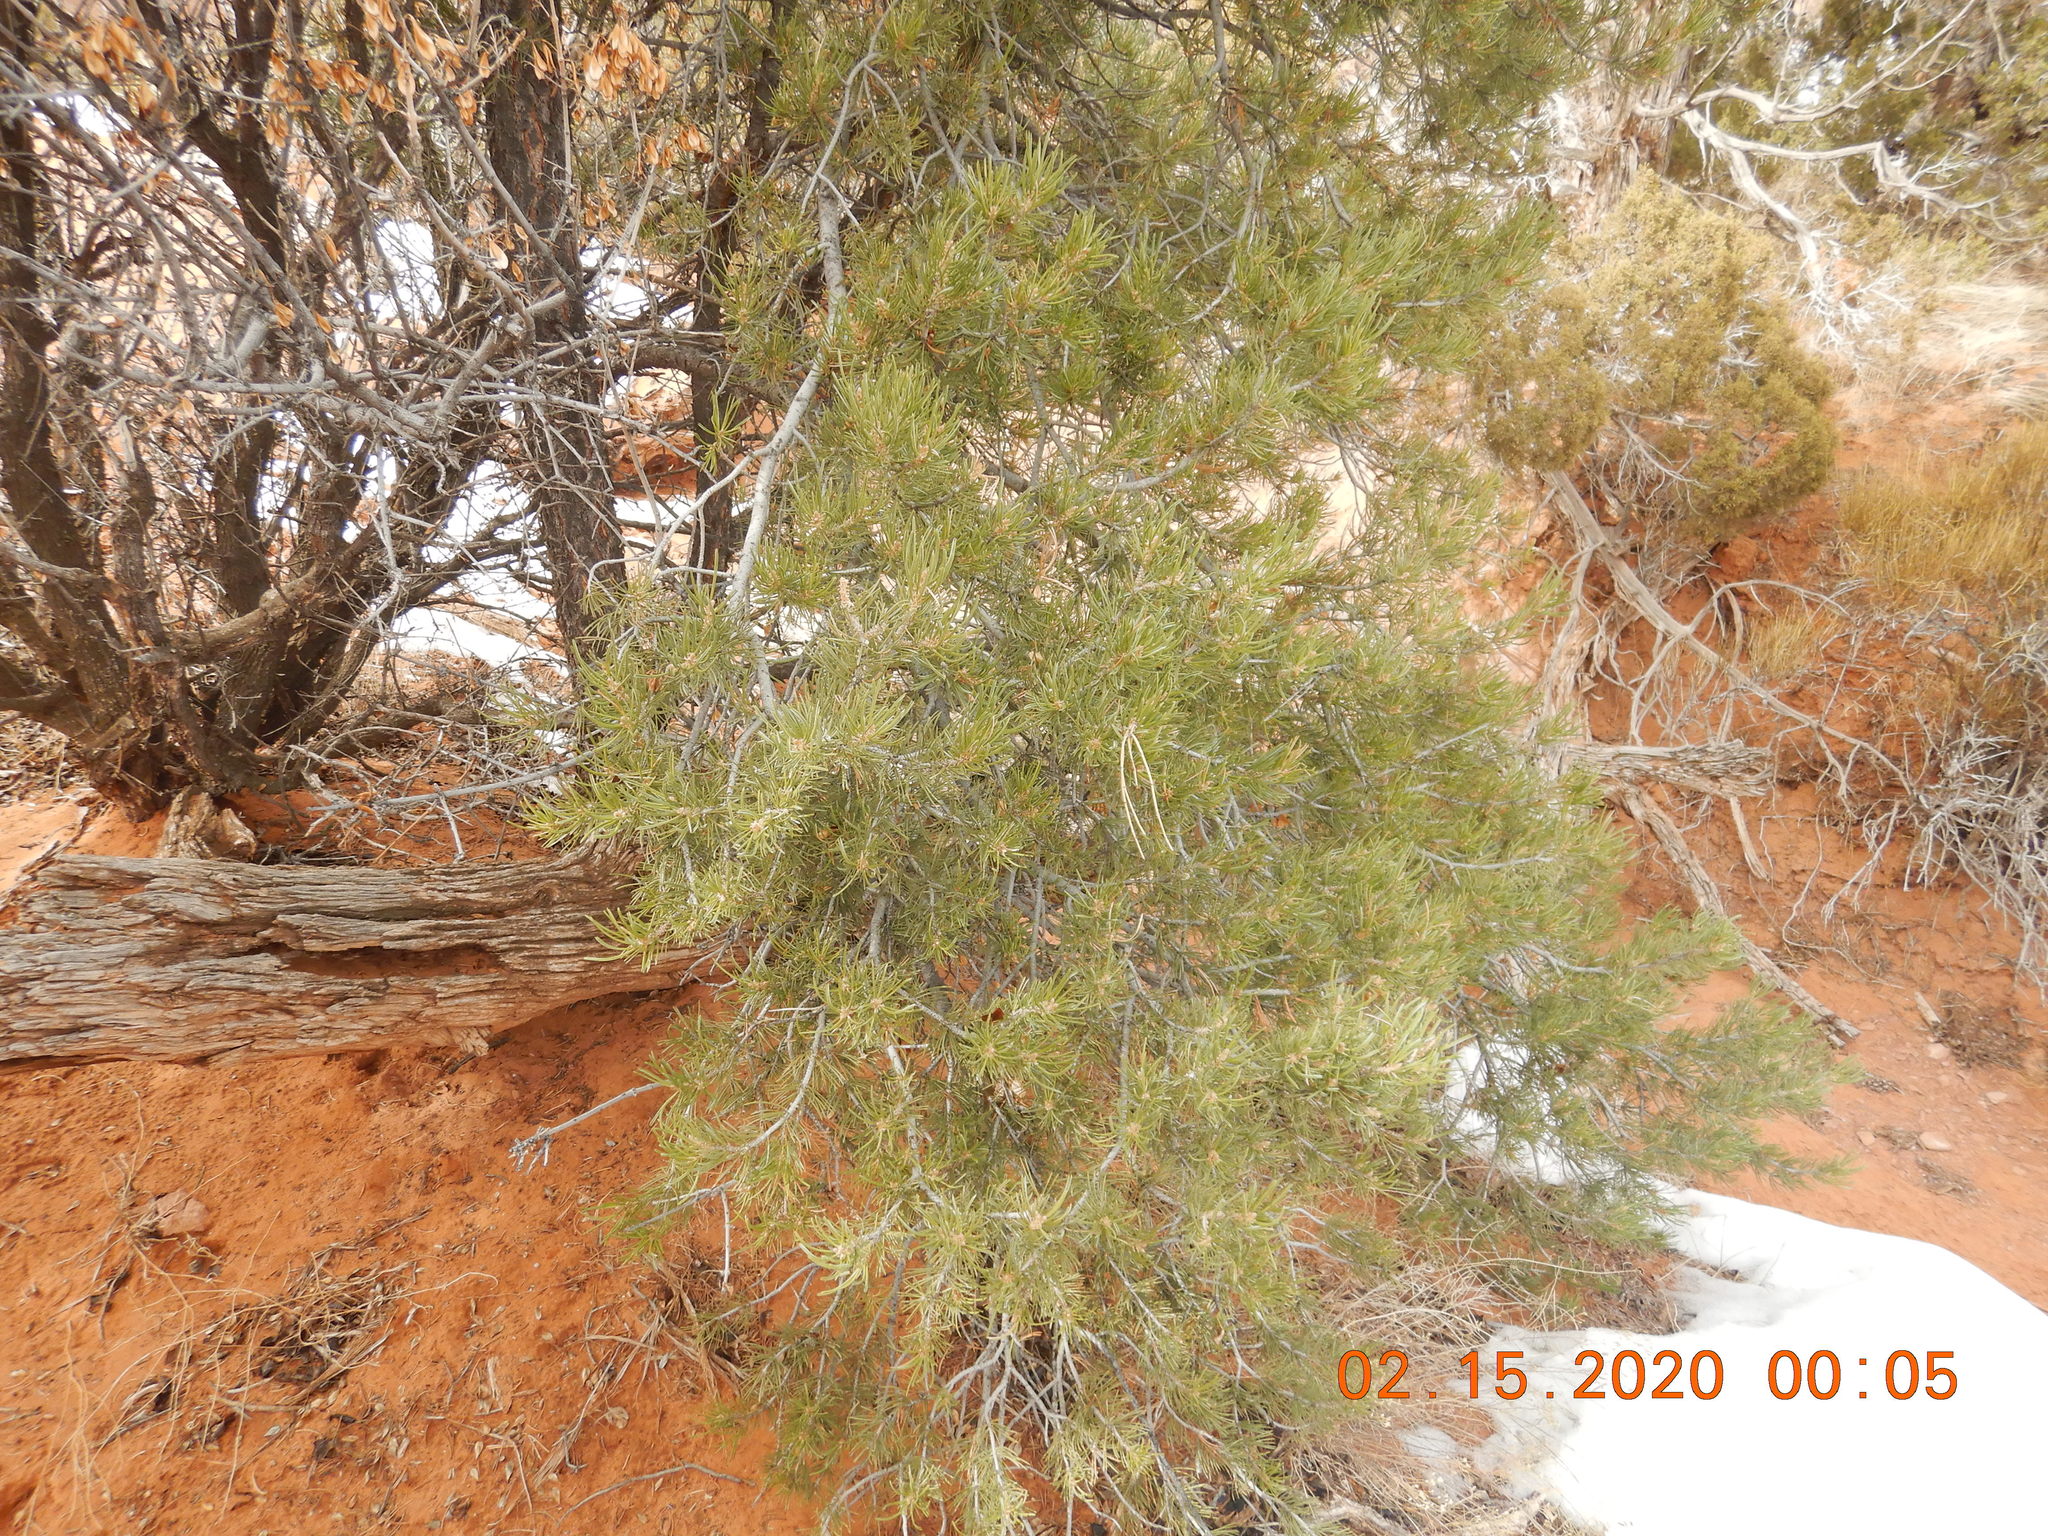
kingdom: Plantae
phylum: Tracheophyta
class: Pinopsida
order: Pinales
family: Pinaceae
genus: Pinus
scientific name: Pinus edulis
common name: Colorado pinyon
